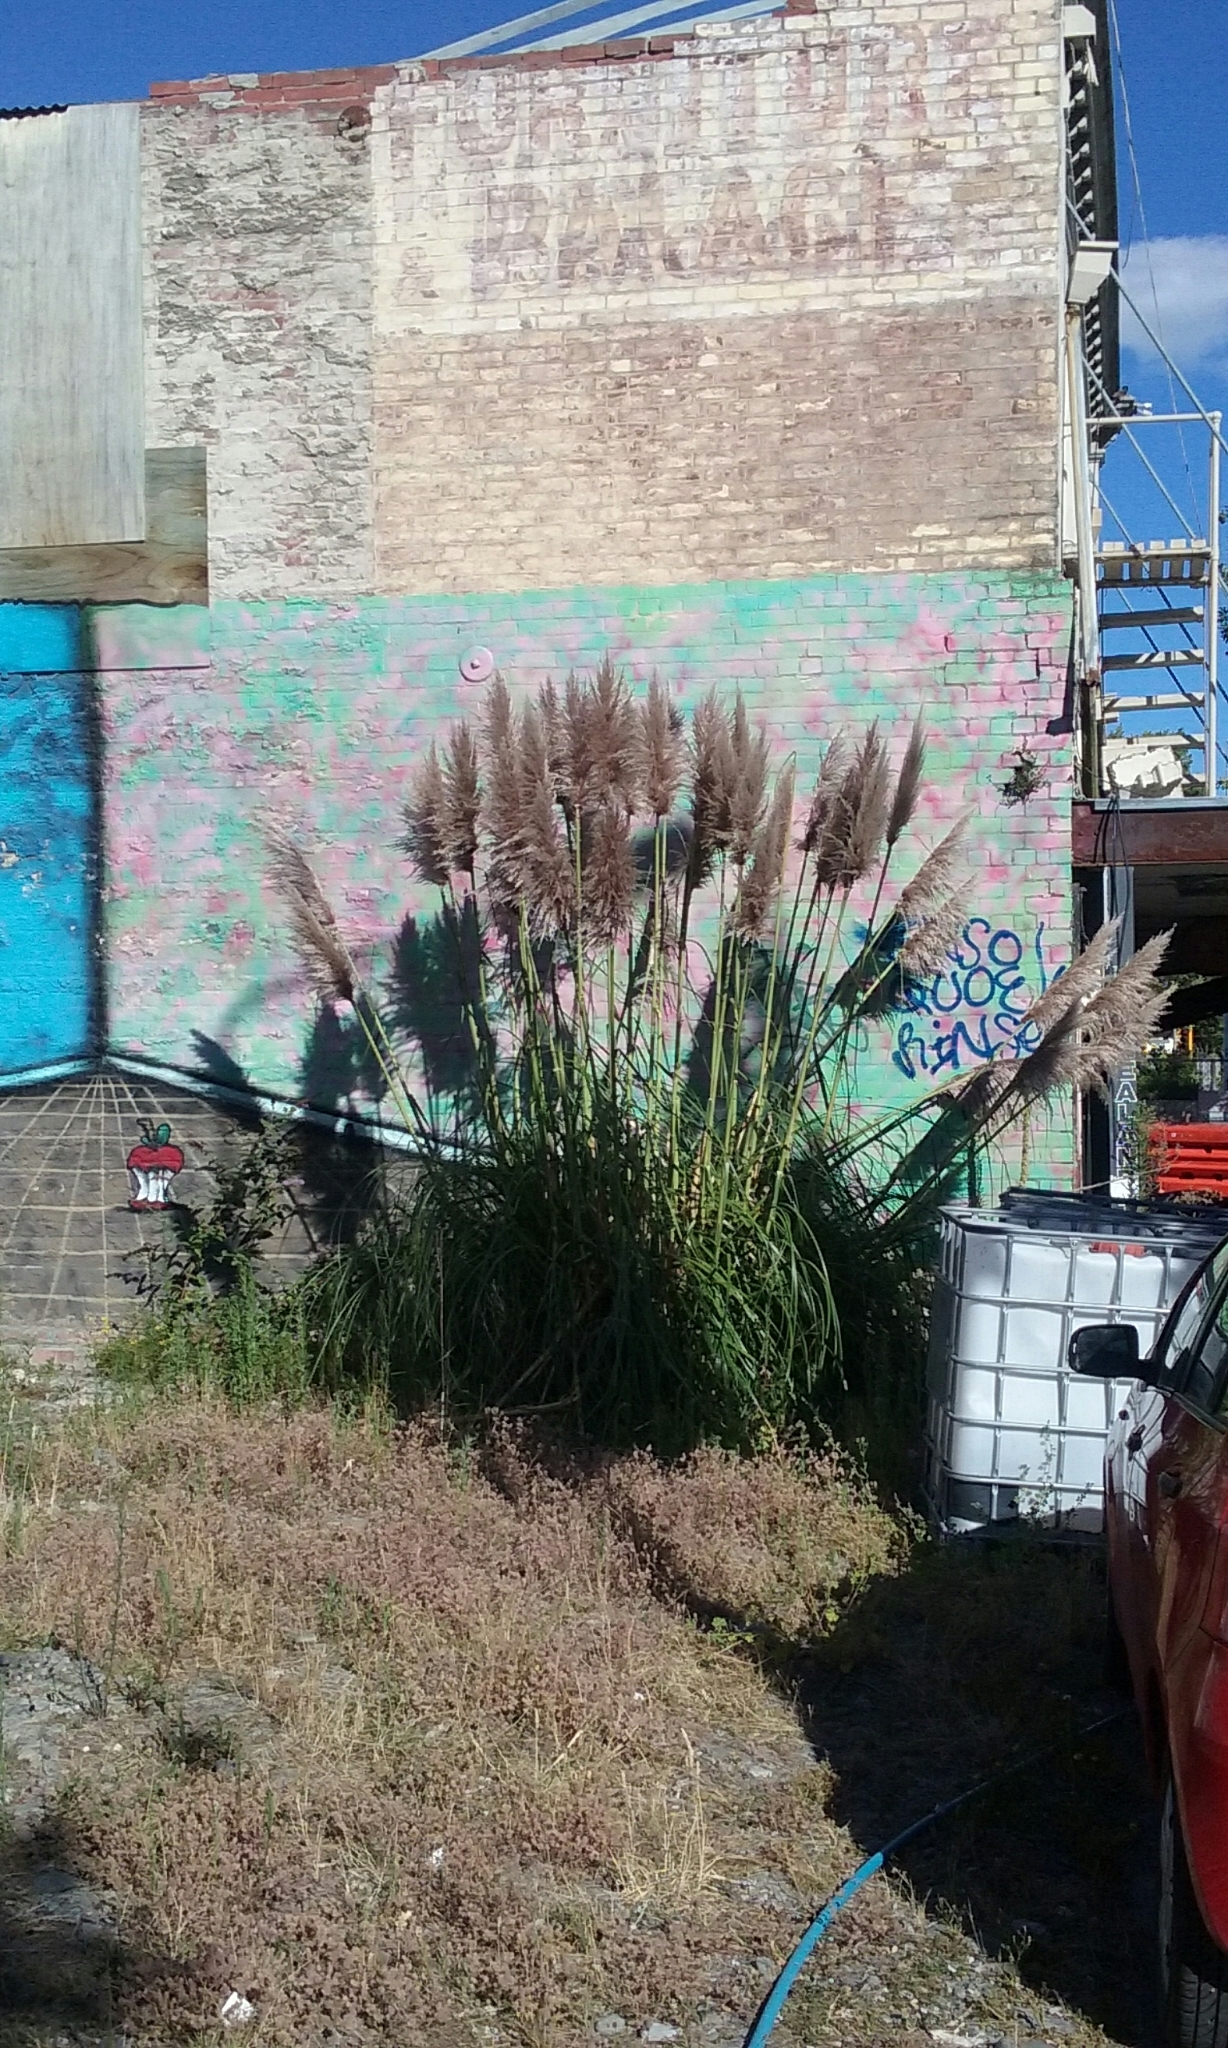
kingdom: Plantae
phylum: Tracheophyta
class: Liliopsida
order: Poales
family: Poaceae
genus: Cortaderia
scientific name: Cortaderia jubata
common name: Purple pampas grass
